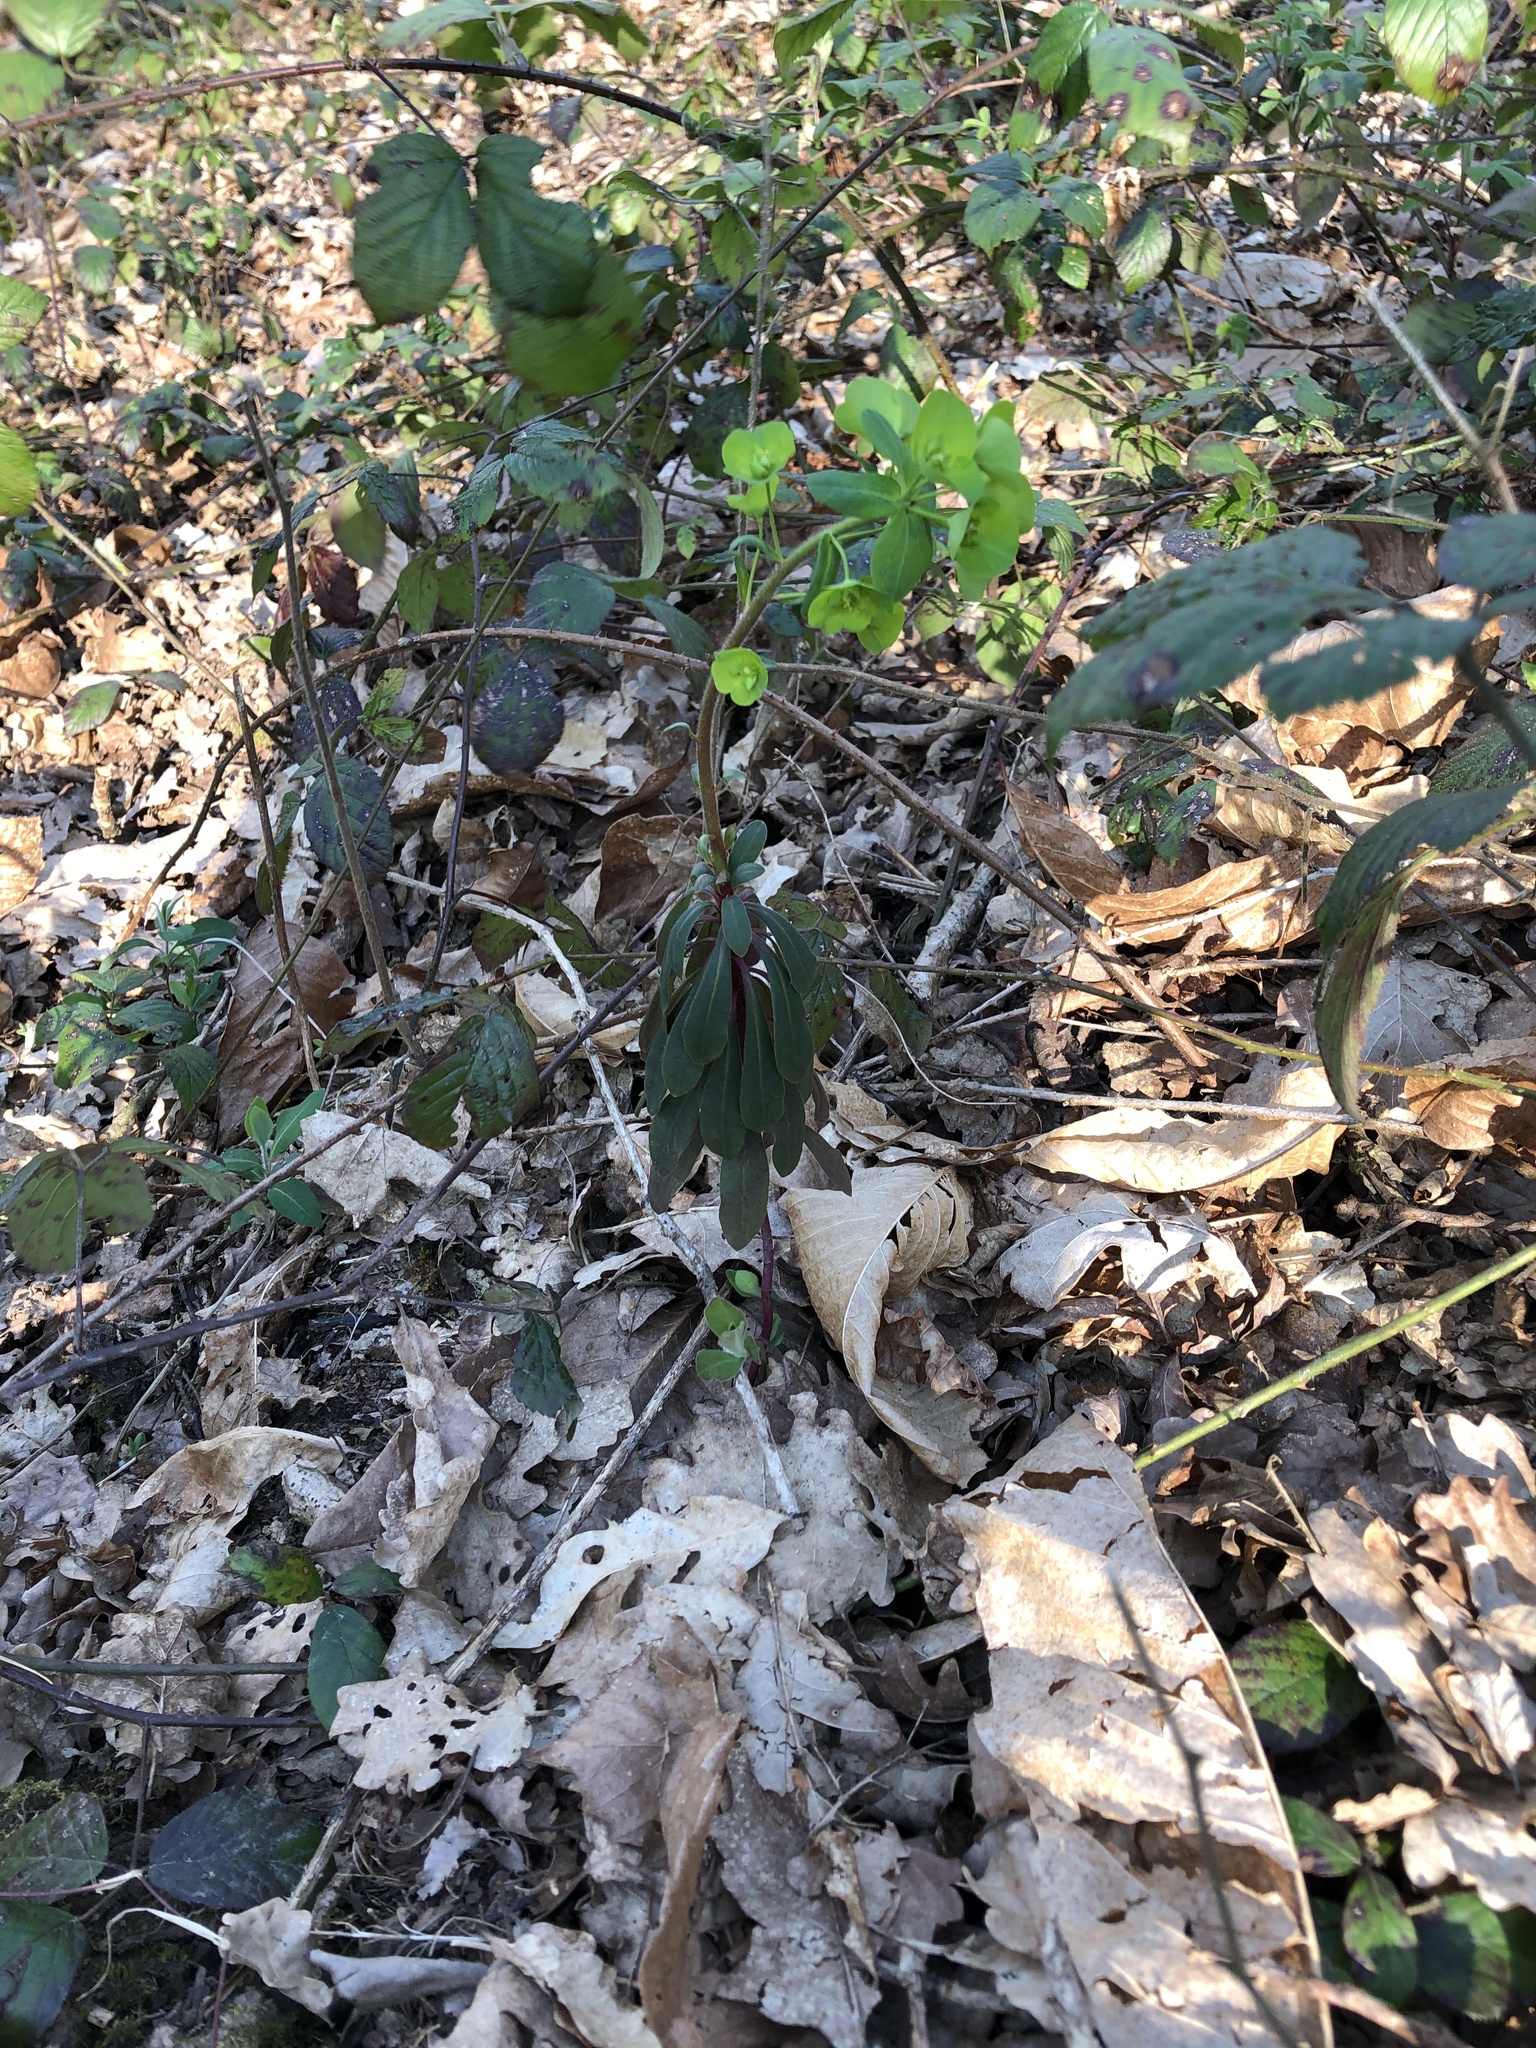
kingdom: Plantae
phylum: Tracheophyta
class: Magnoliopsida
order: Malpighiales
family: Euphorbiaceae
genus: Euphorbia
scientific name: Euphorbia amygdaloides
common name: Wood spurge
